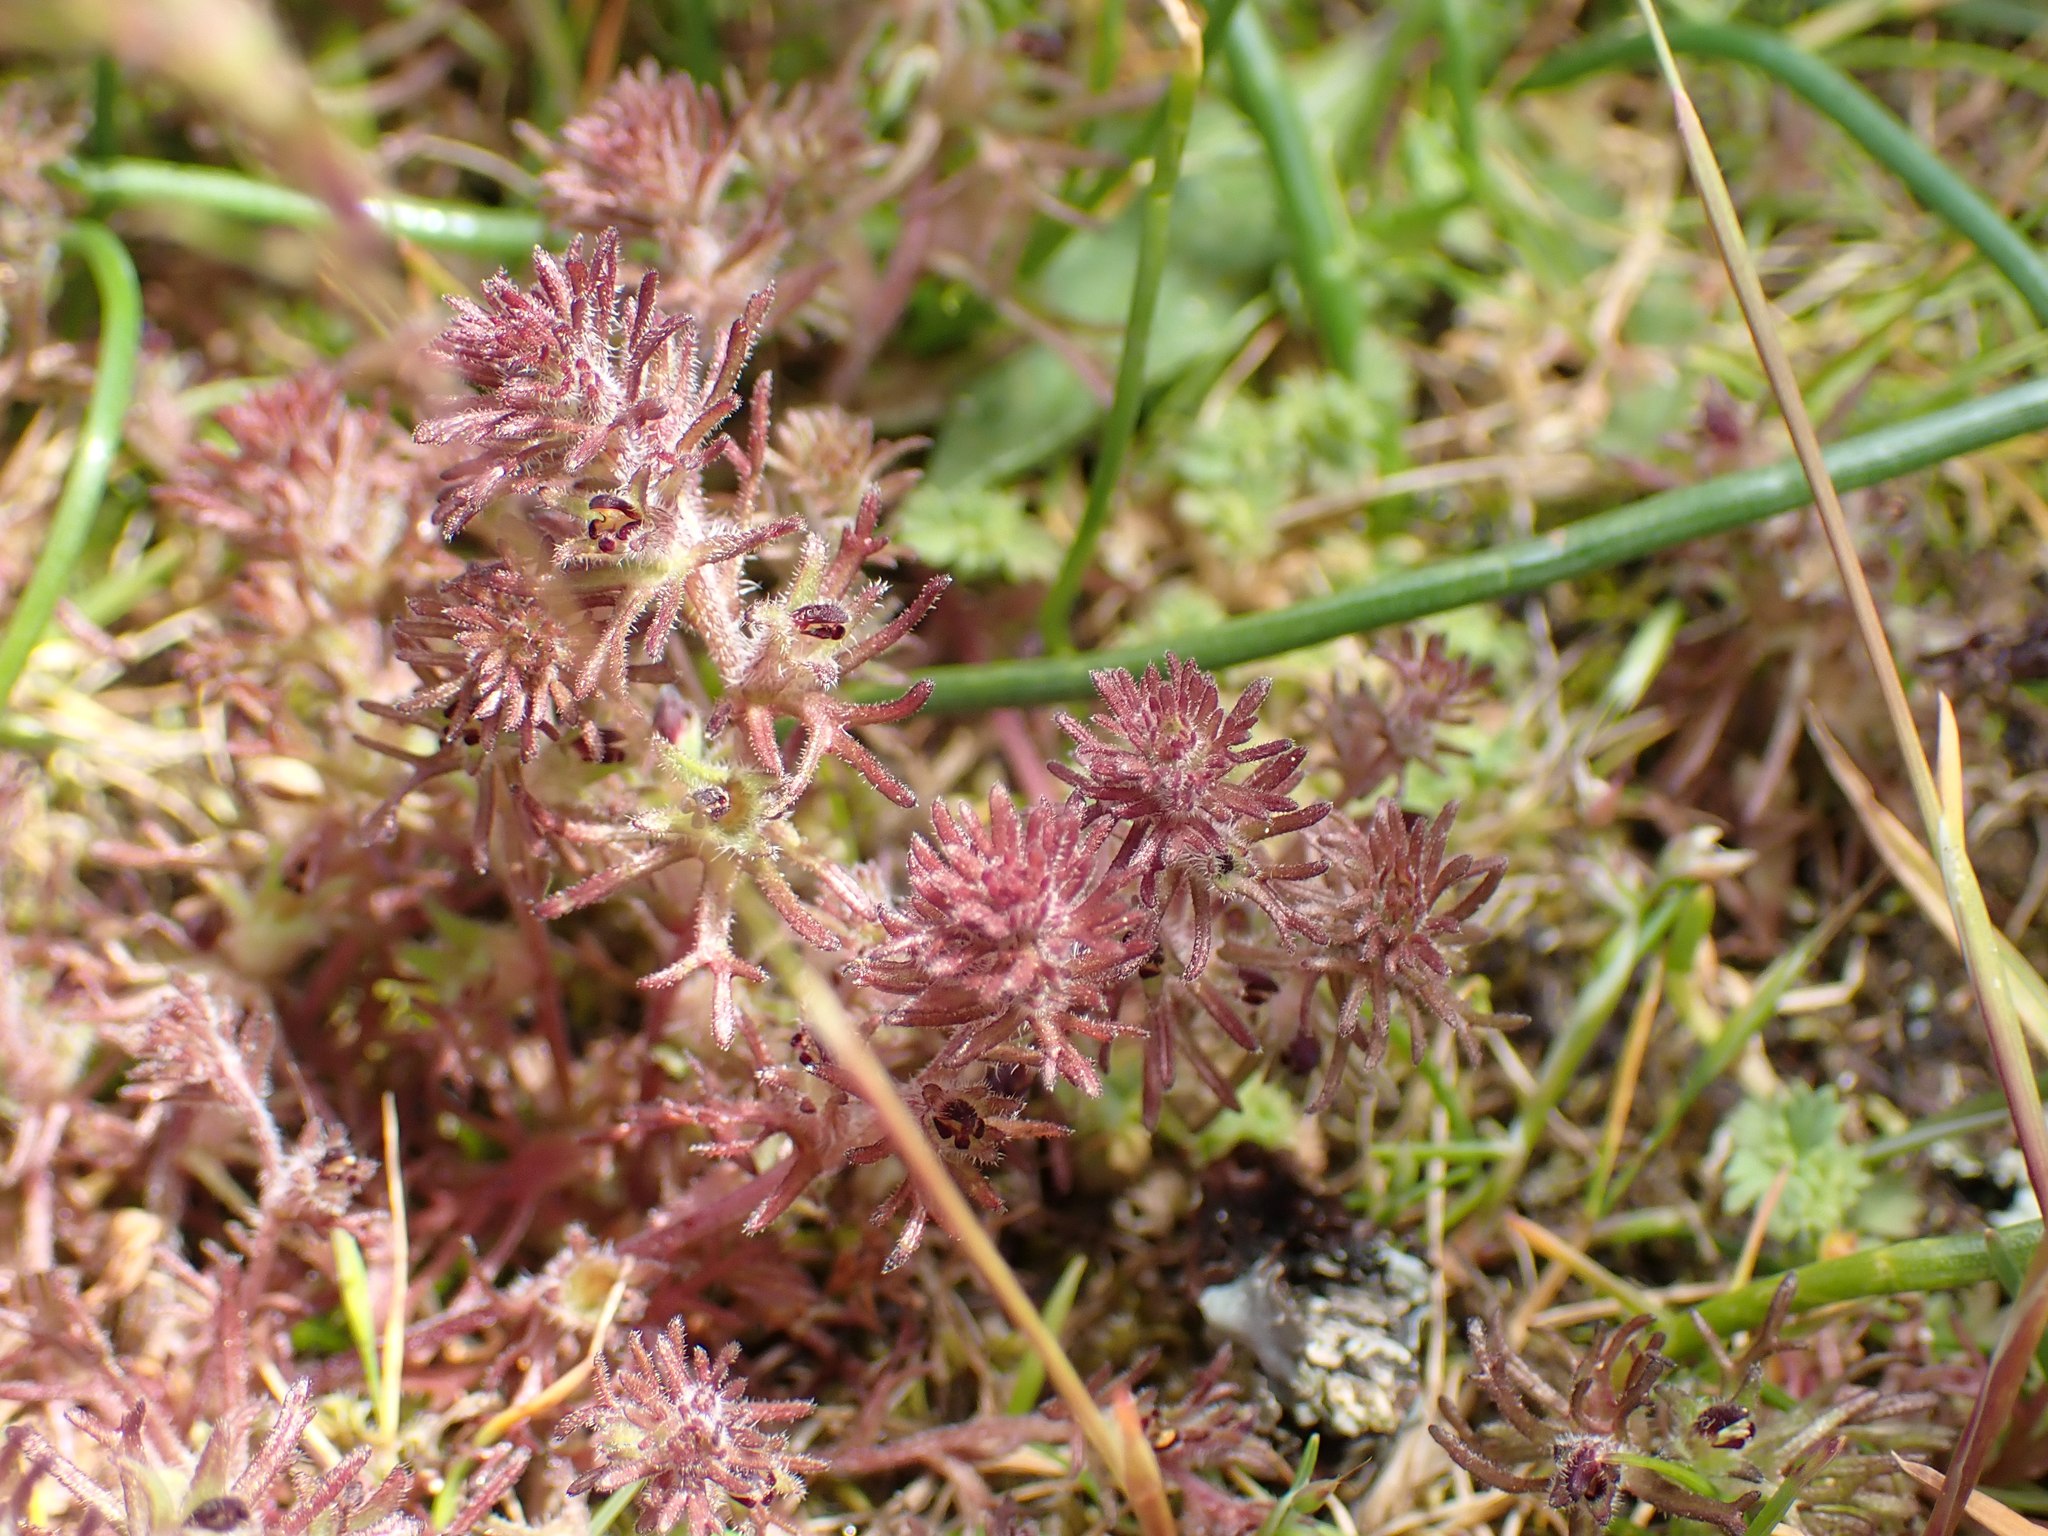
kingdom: Plantae
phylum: Tracheophyta
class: Magnoliopsida
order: Lamiales
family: Orobanchaceae
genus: Triphysaria
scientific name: Triphysaria pusilla
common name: Dwarf false owl-clover
